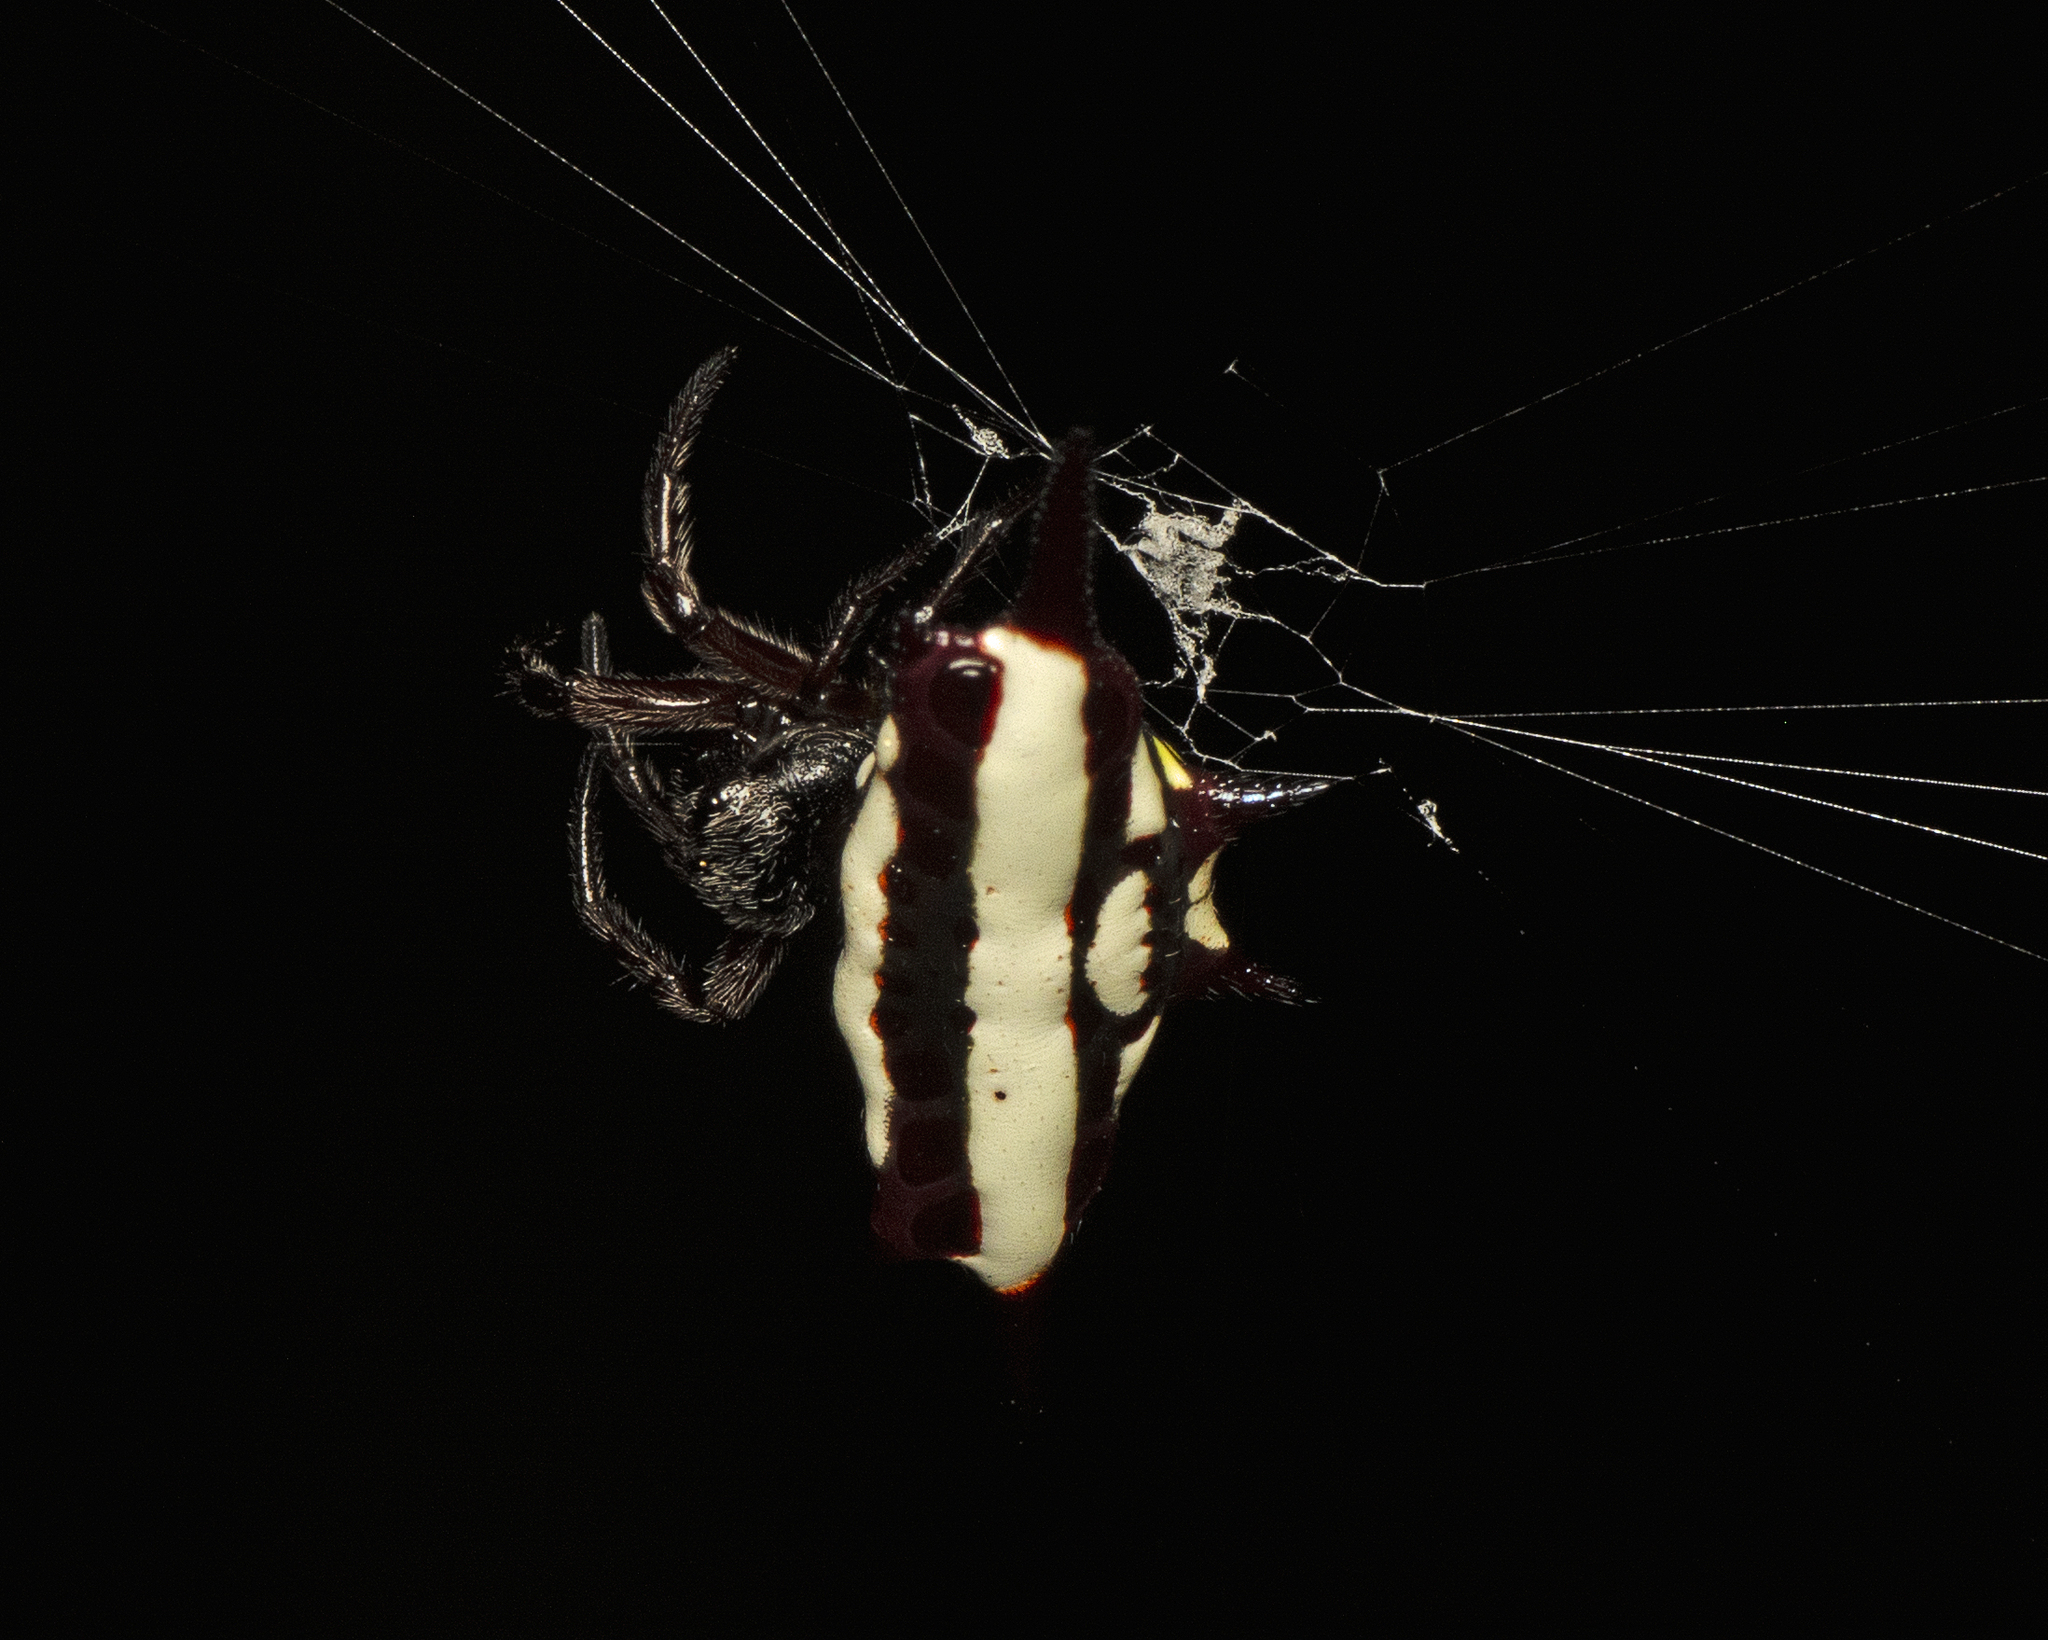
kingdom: Animalia
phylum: Arthropoda
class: Arachnida
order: Araneae
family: Araneidae
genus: Gasteracantha
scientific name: Gasteracantha fornicata
